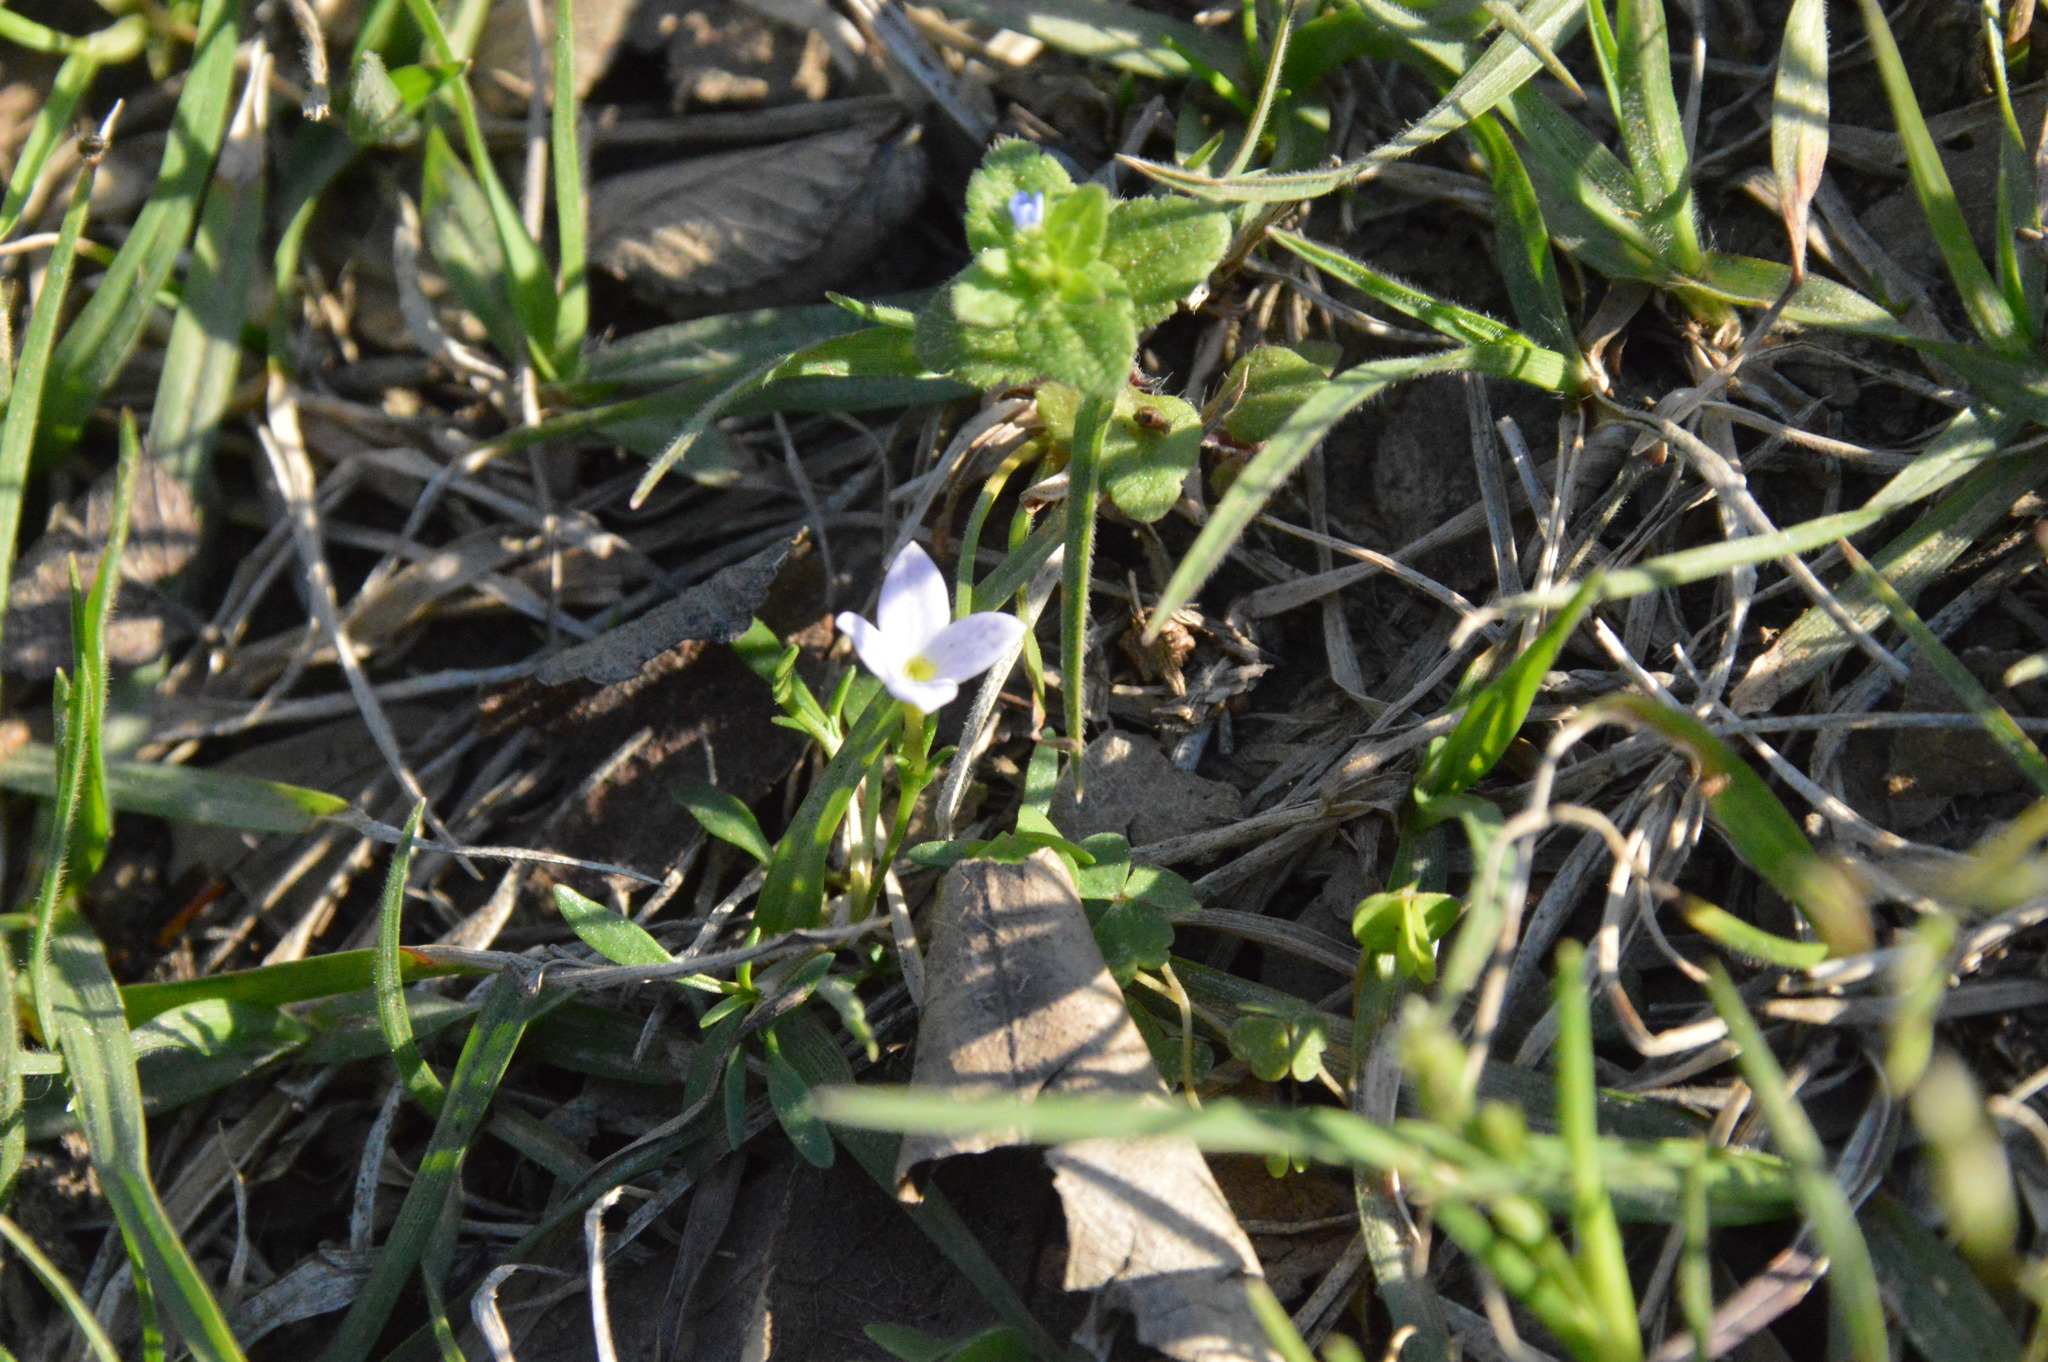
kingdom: Plantae
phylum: Tracheophyta
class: Magnoliopsida
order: Gentianales
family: Rubiaceae
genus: Houstonia
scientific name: Houstonia rosea
